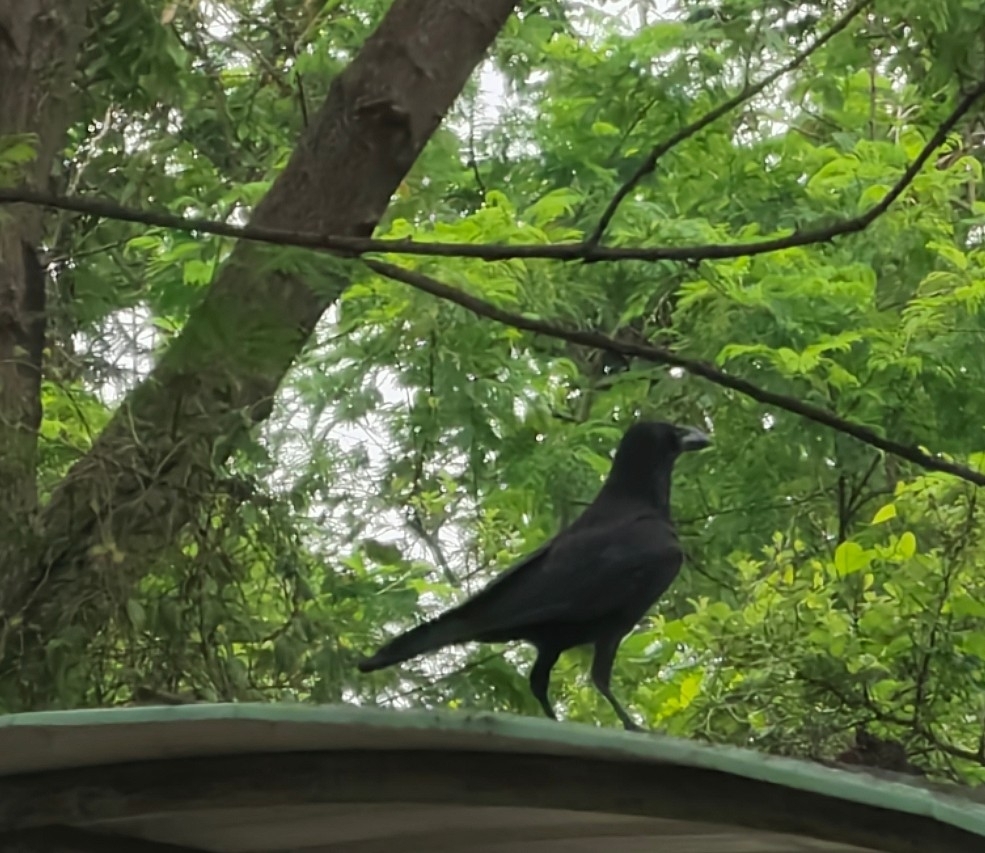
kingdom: Animalia
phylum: Chordata
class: Aves
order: Passeriformes
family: Corvidae
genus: Corvus
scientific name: Corvus macrorhynchos
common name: Large-billed crow
